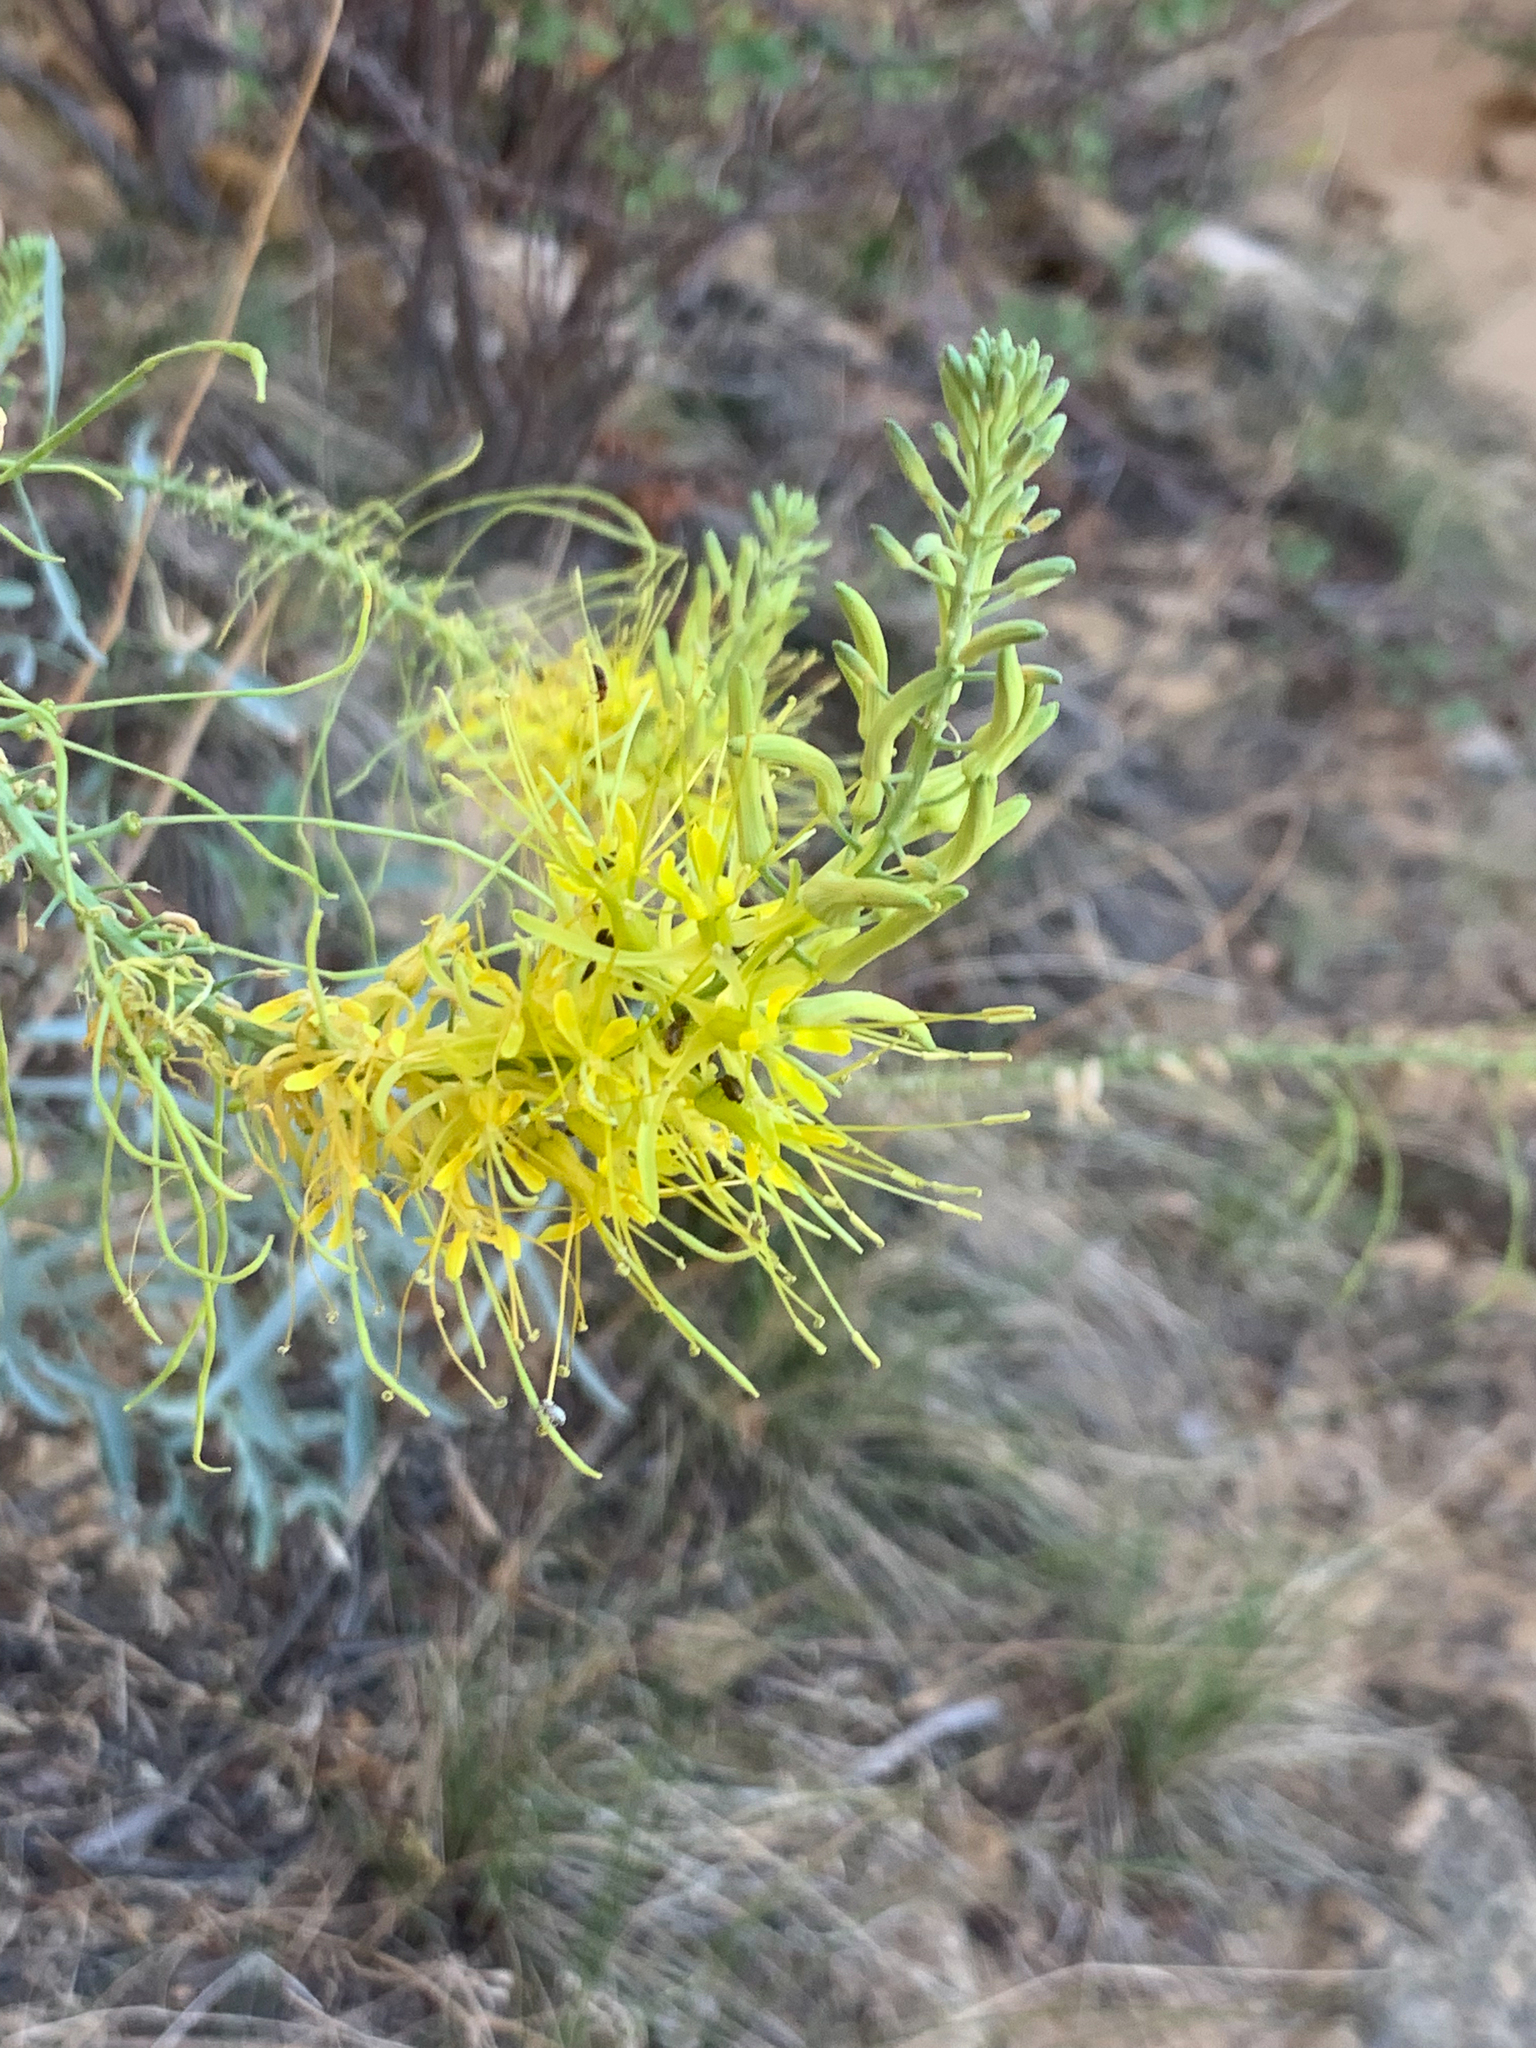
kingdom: Plantae
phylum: Tracheophyta
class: Magnoliopsida
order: Brassicales
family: Brassicaceae
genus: Stanleya
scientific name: Stanleya pinnata
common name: Prince's-plume
